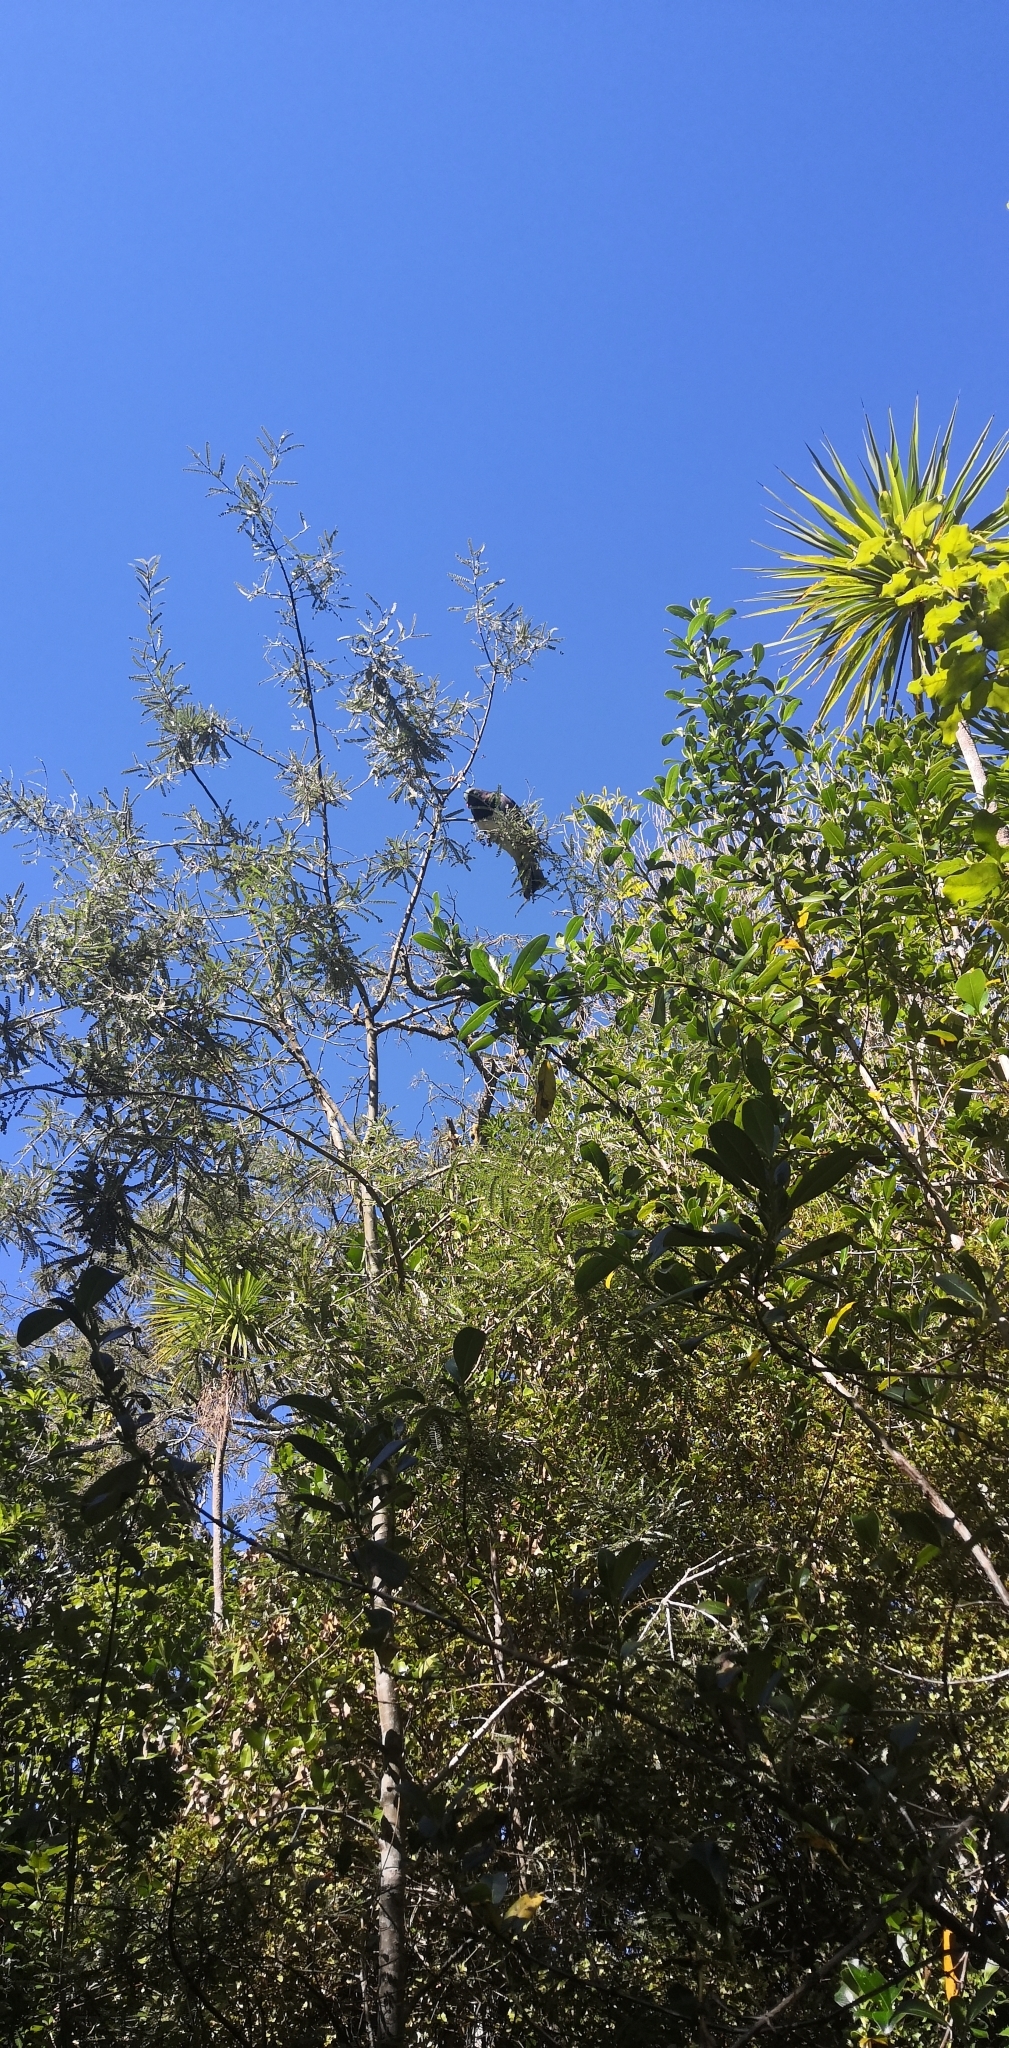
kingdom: Animalia
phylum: Chordata
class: Aves
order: Columbiformes
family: Columbidae
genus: Hemiphaga
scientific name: Hemiphaga novaeseelandiae
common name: New zealand pigeon
